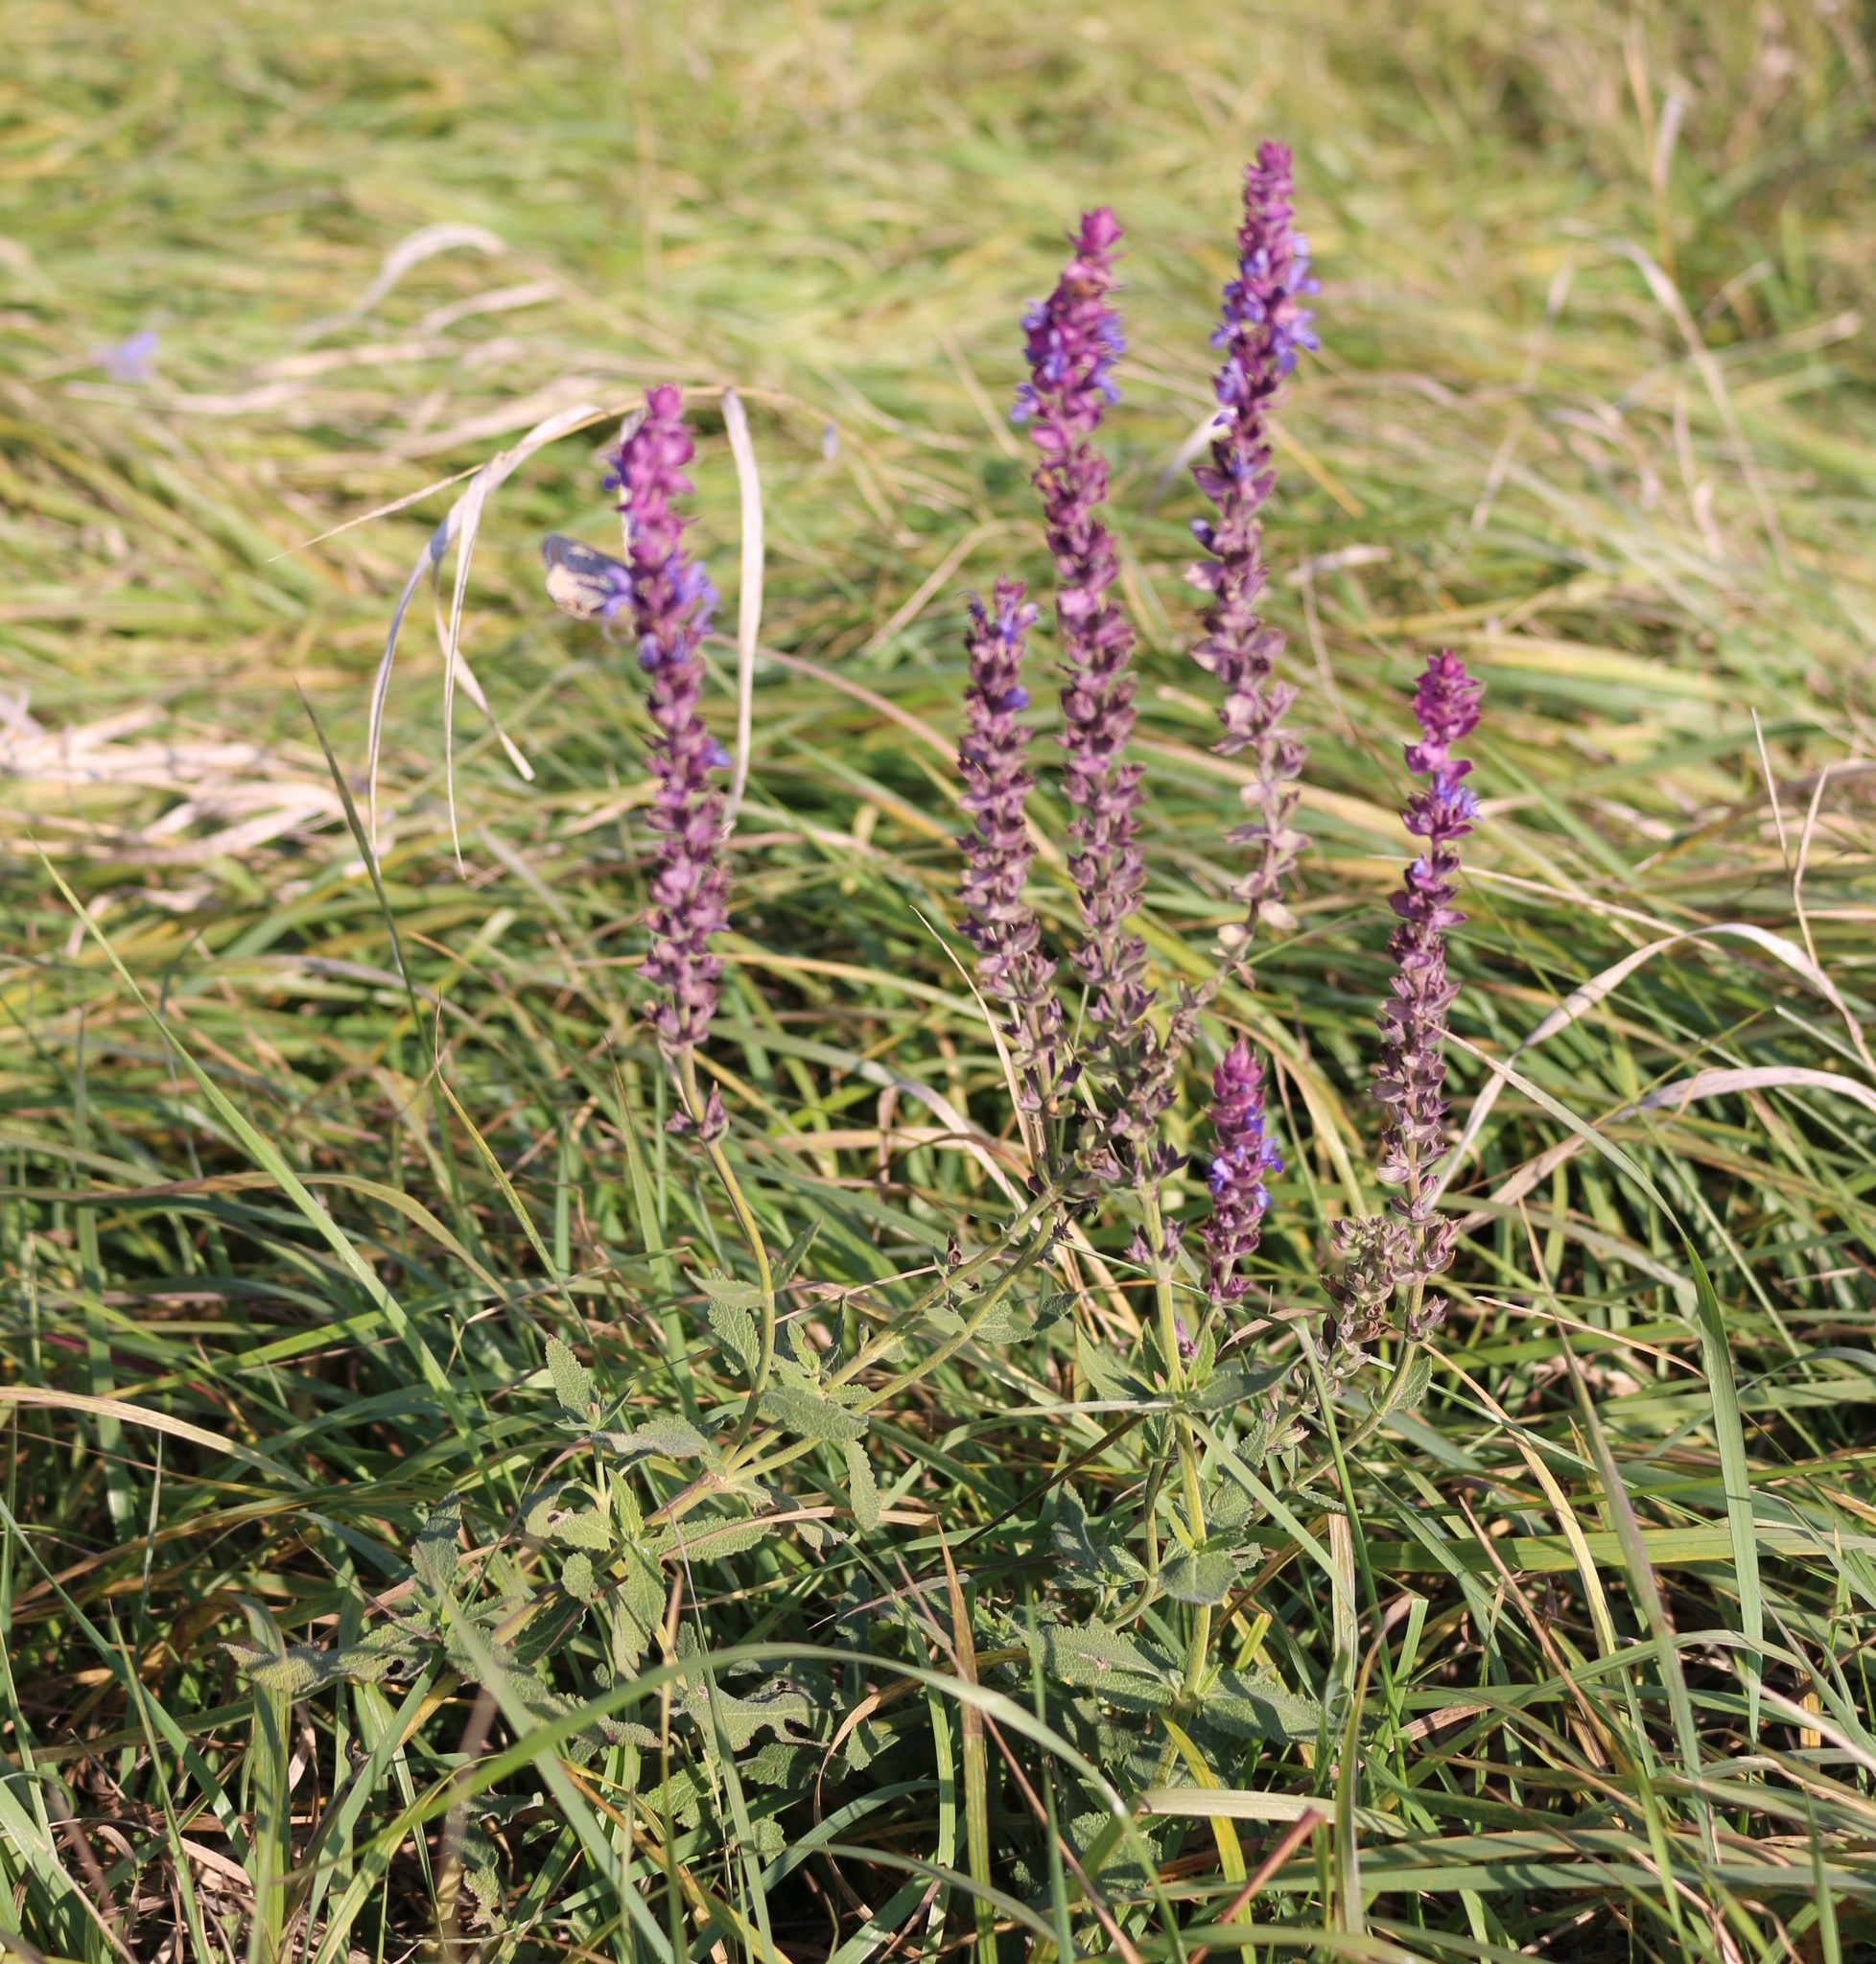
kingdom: Plantae
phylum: Tracheophyta
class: Magnoliopsida
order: Lamiales
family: Lamiaceae
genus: Salvia
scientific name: Salvia nemorosa
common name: Balkan clary
